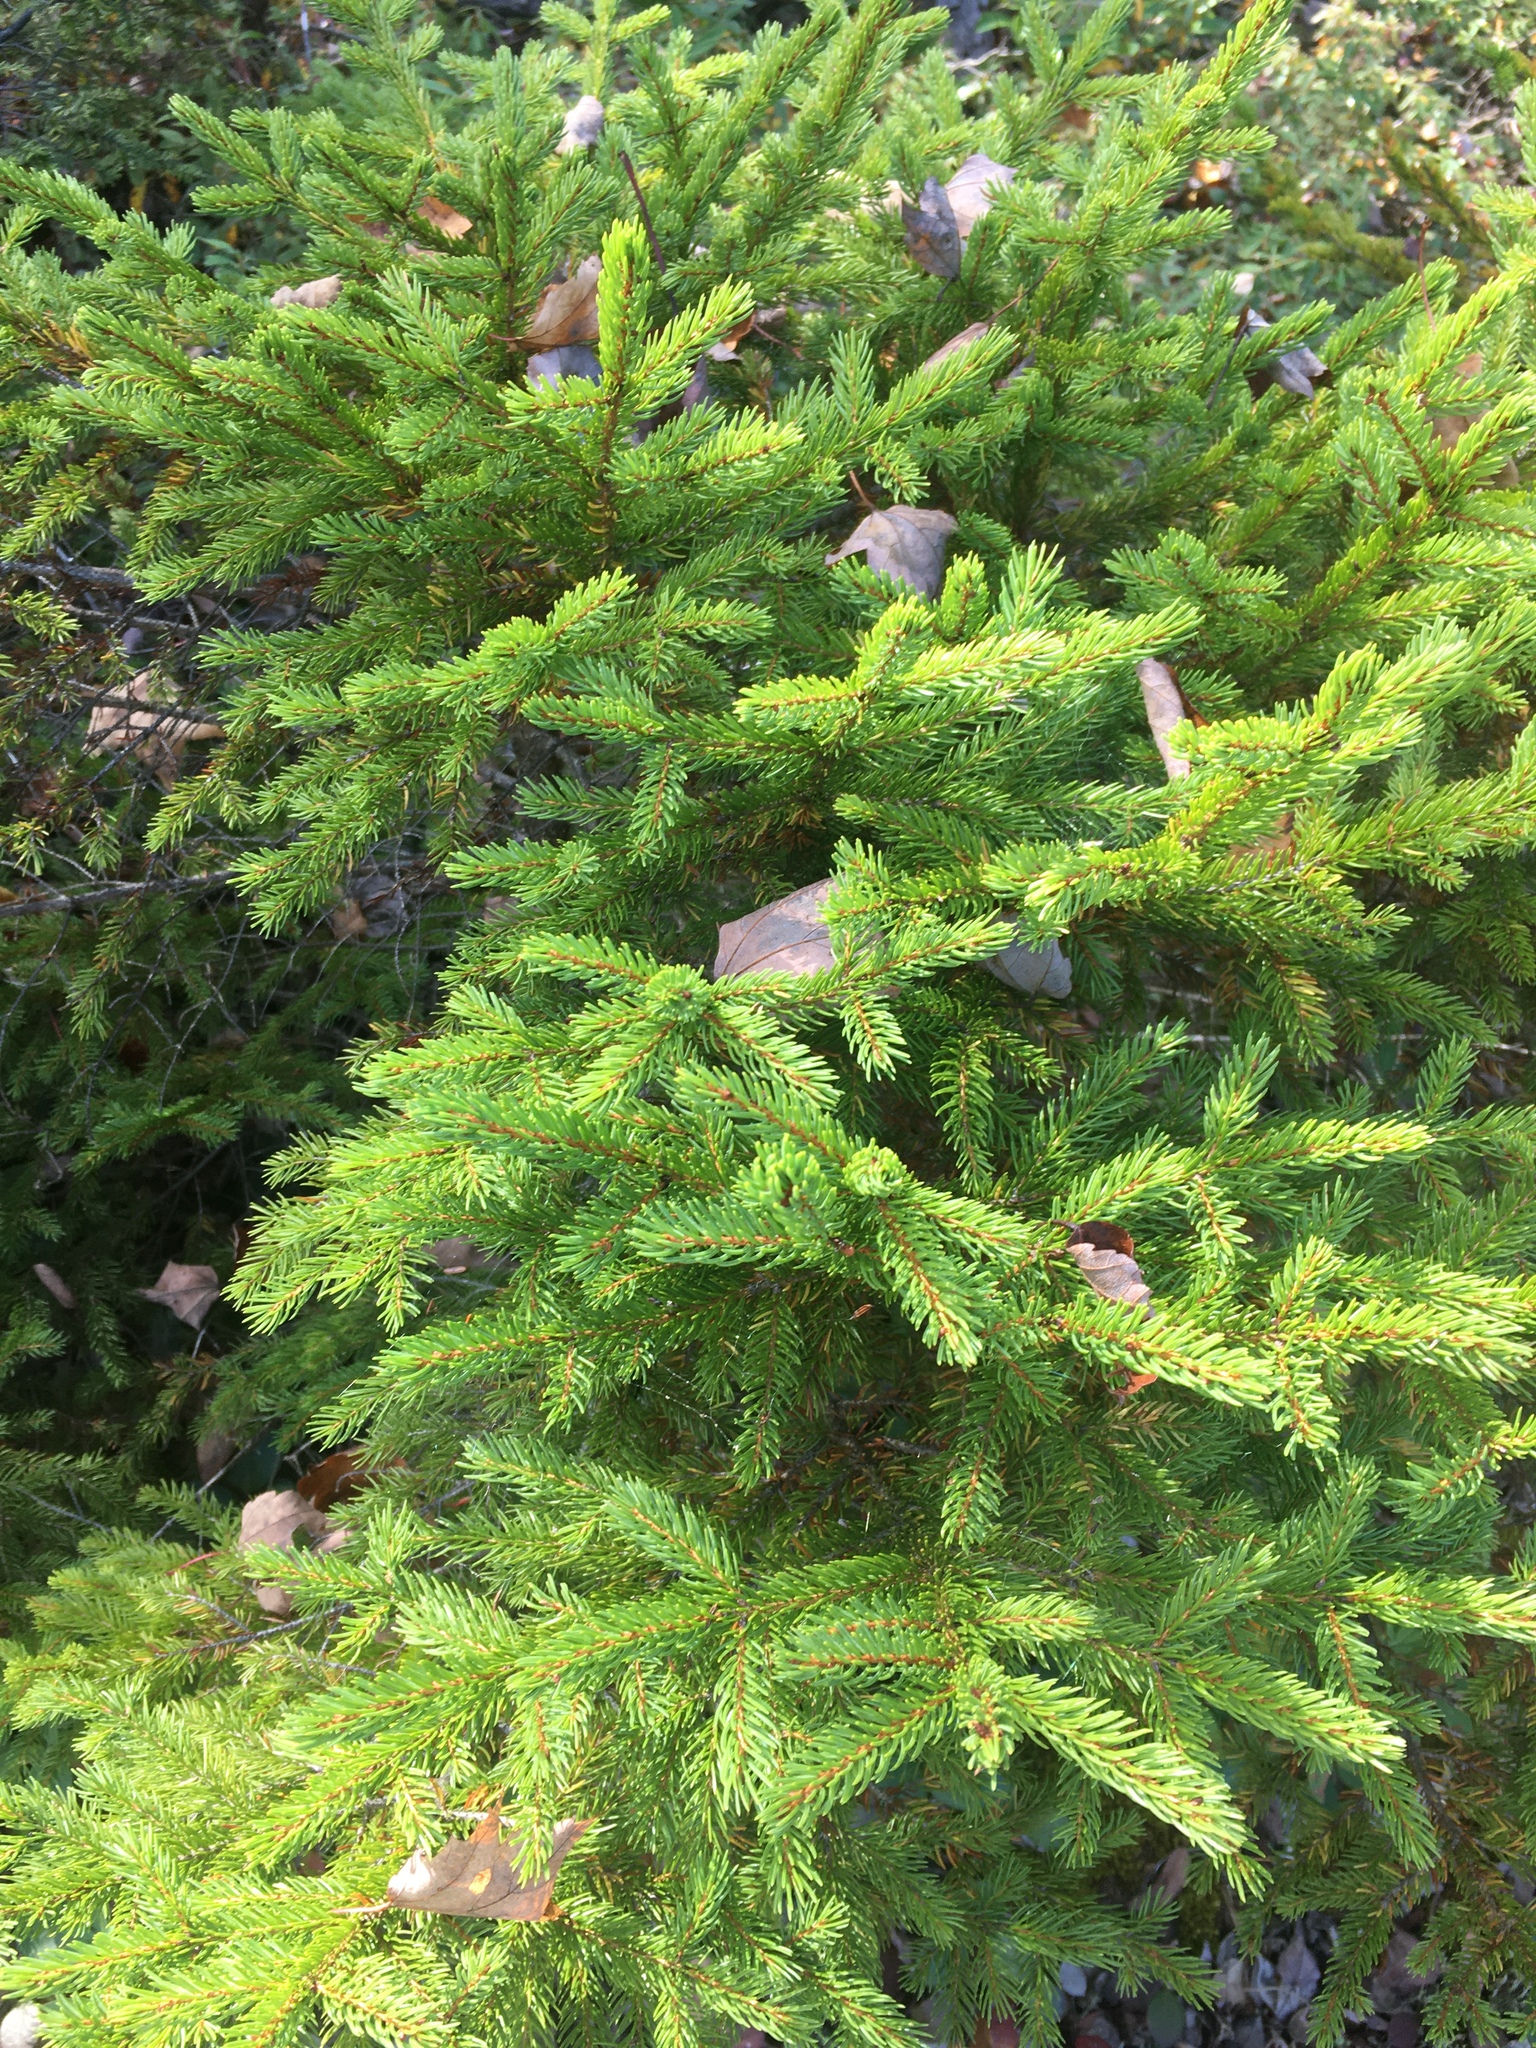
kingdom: Plantae
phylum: Tracheophyta
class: Pinopsida
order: Pinales
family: Pinaceae
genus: Picea
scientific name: Picea rubens
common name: Red spruce
